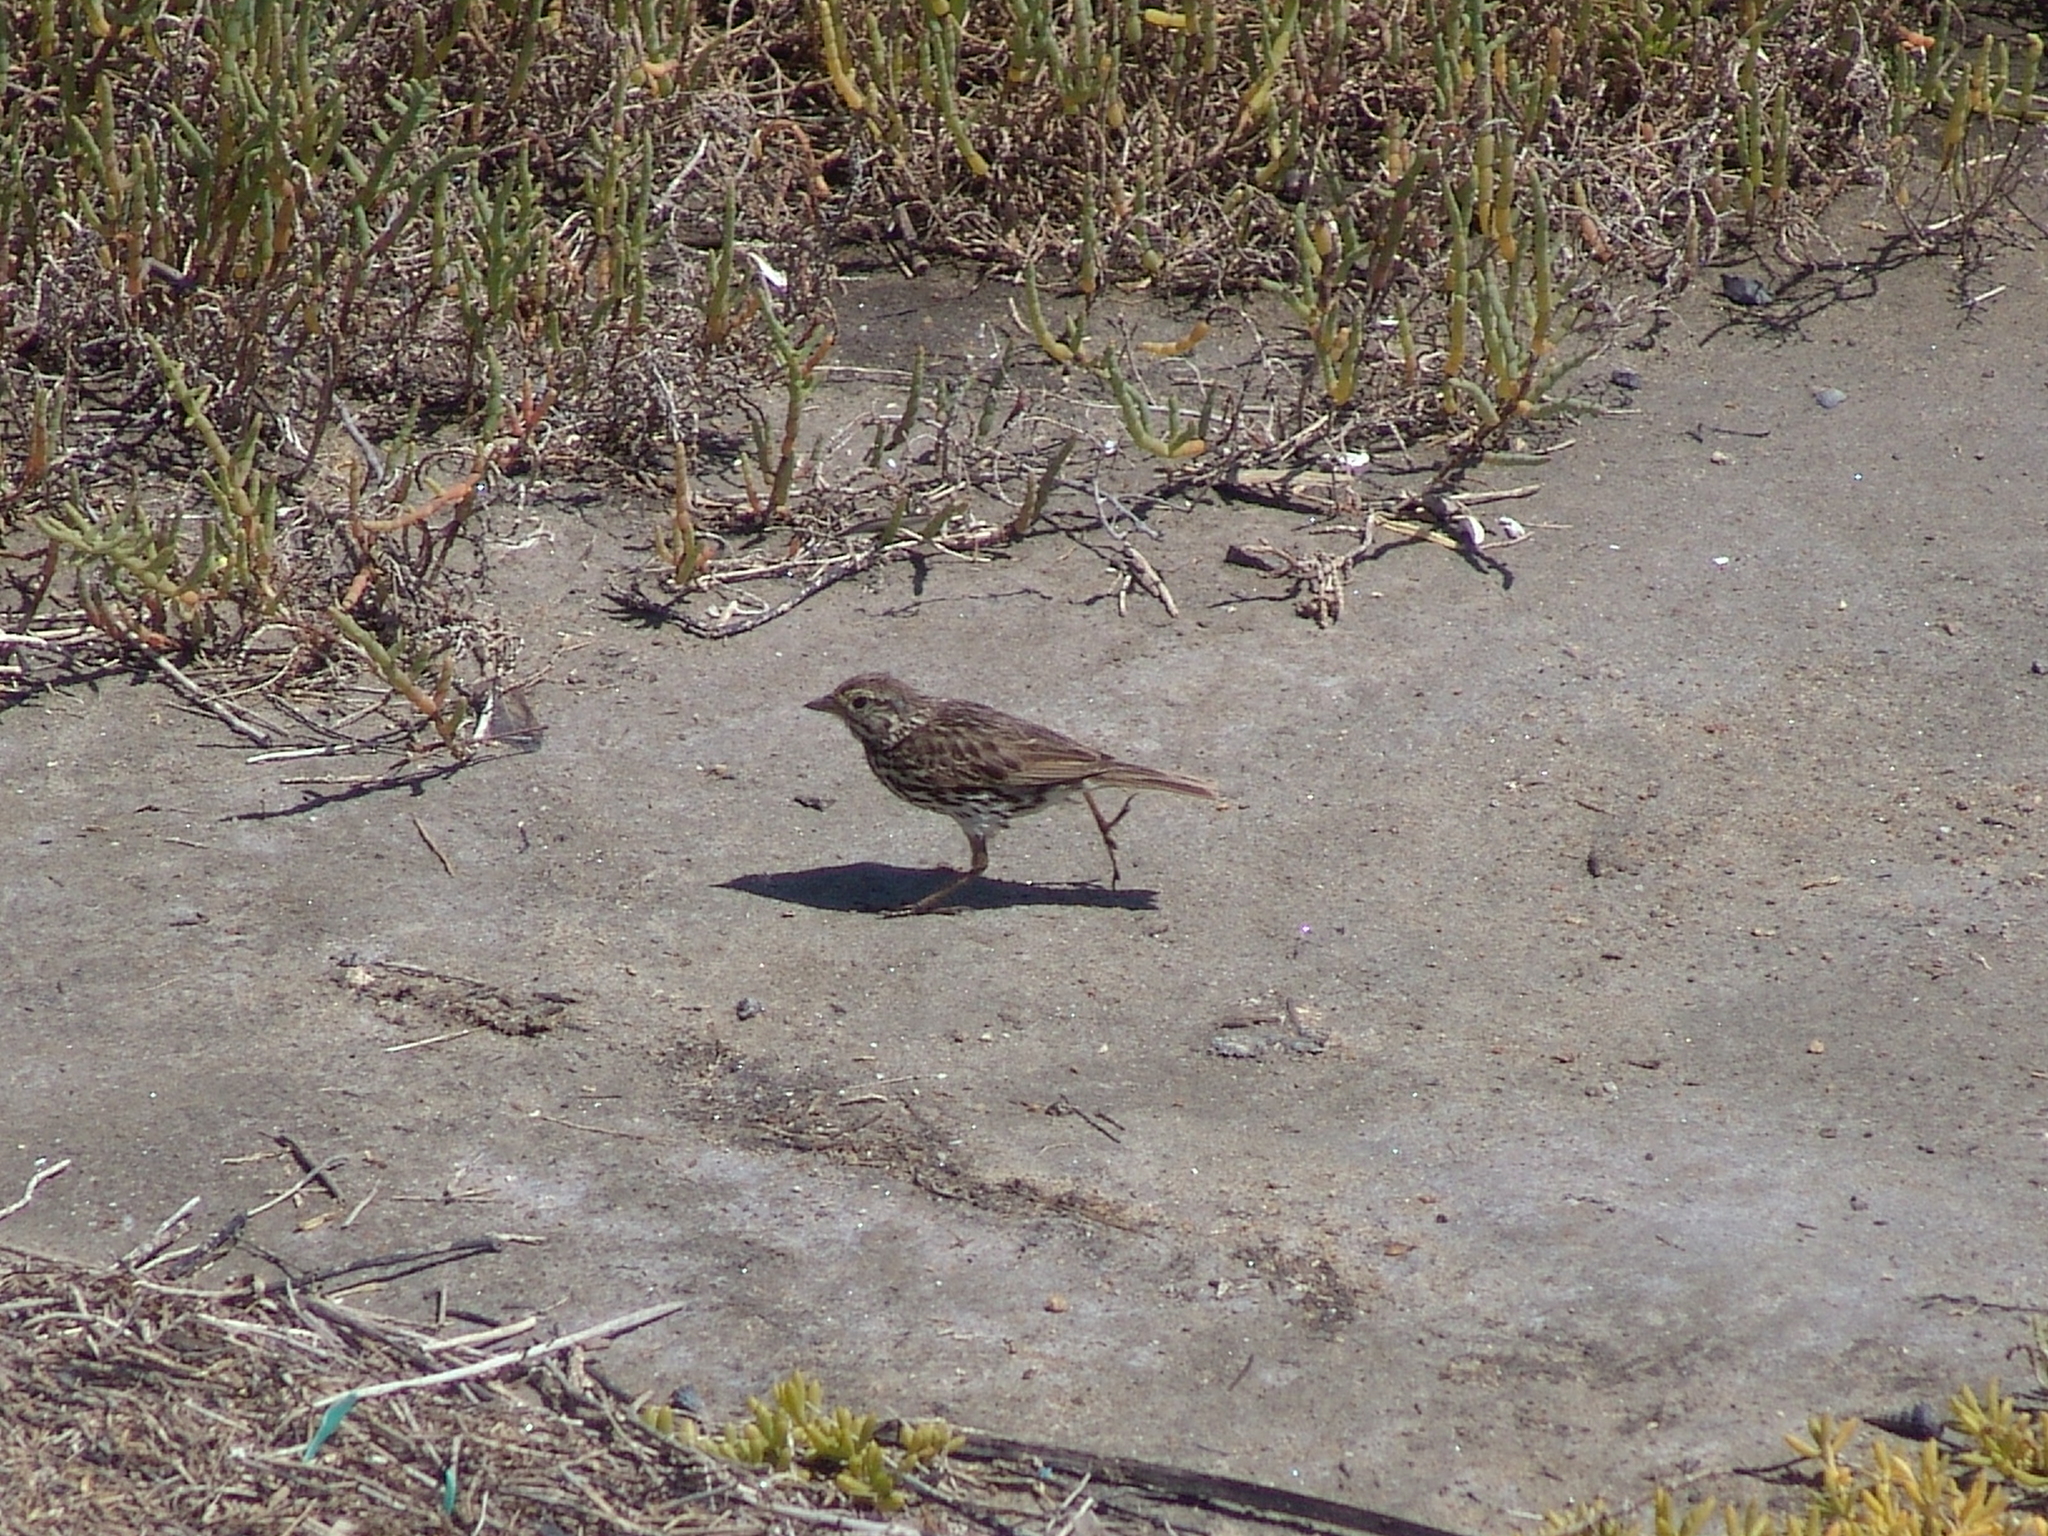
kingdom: Animalia
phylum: Chordata
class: Aves
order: Passeriformes
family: Passerellidae
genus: Passerculus
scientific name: Passerculus sandwichensis
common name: Savannah sparrow
